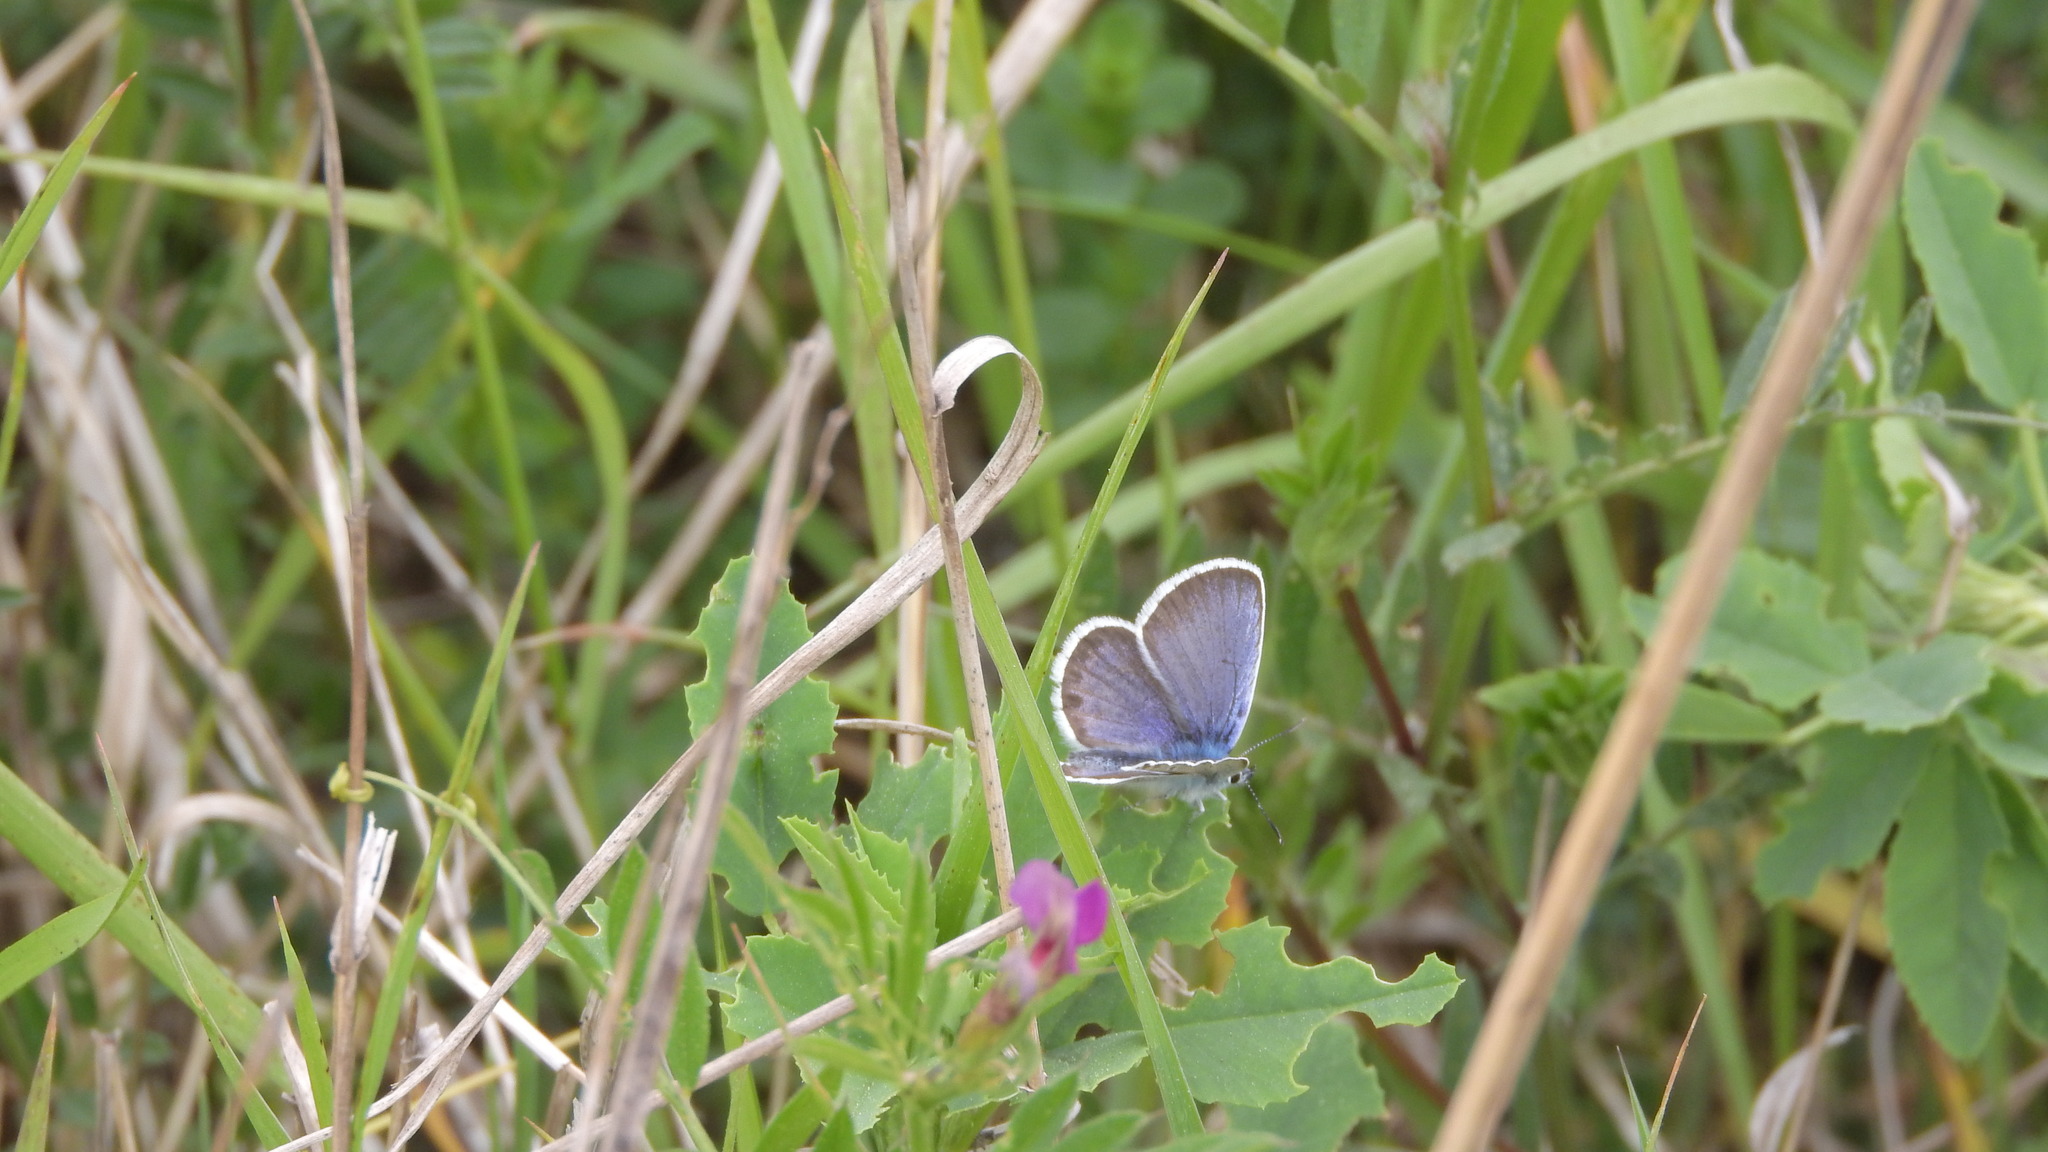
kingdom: Animalia
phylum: Arthropoda
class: Insecta
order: Lepidoptera
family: Lycaenidae
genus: Plebejus
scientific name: Plebejus argus
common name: Silver-studded blue
